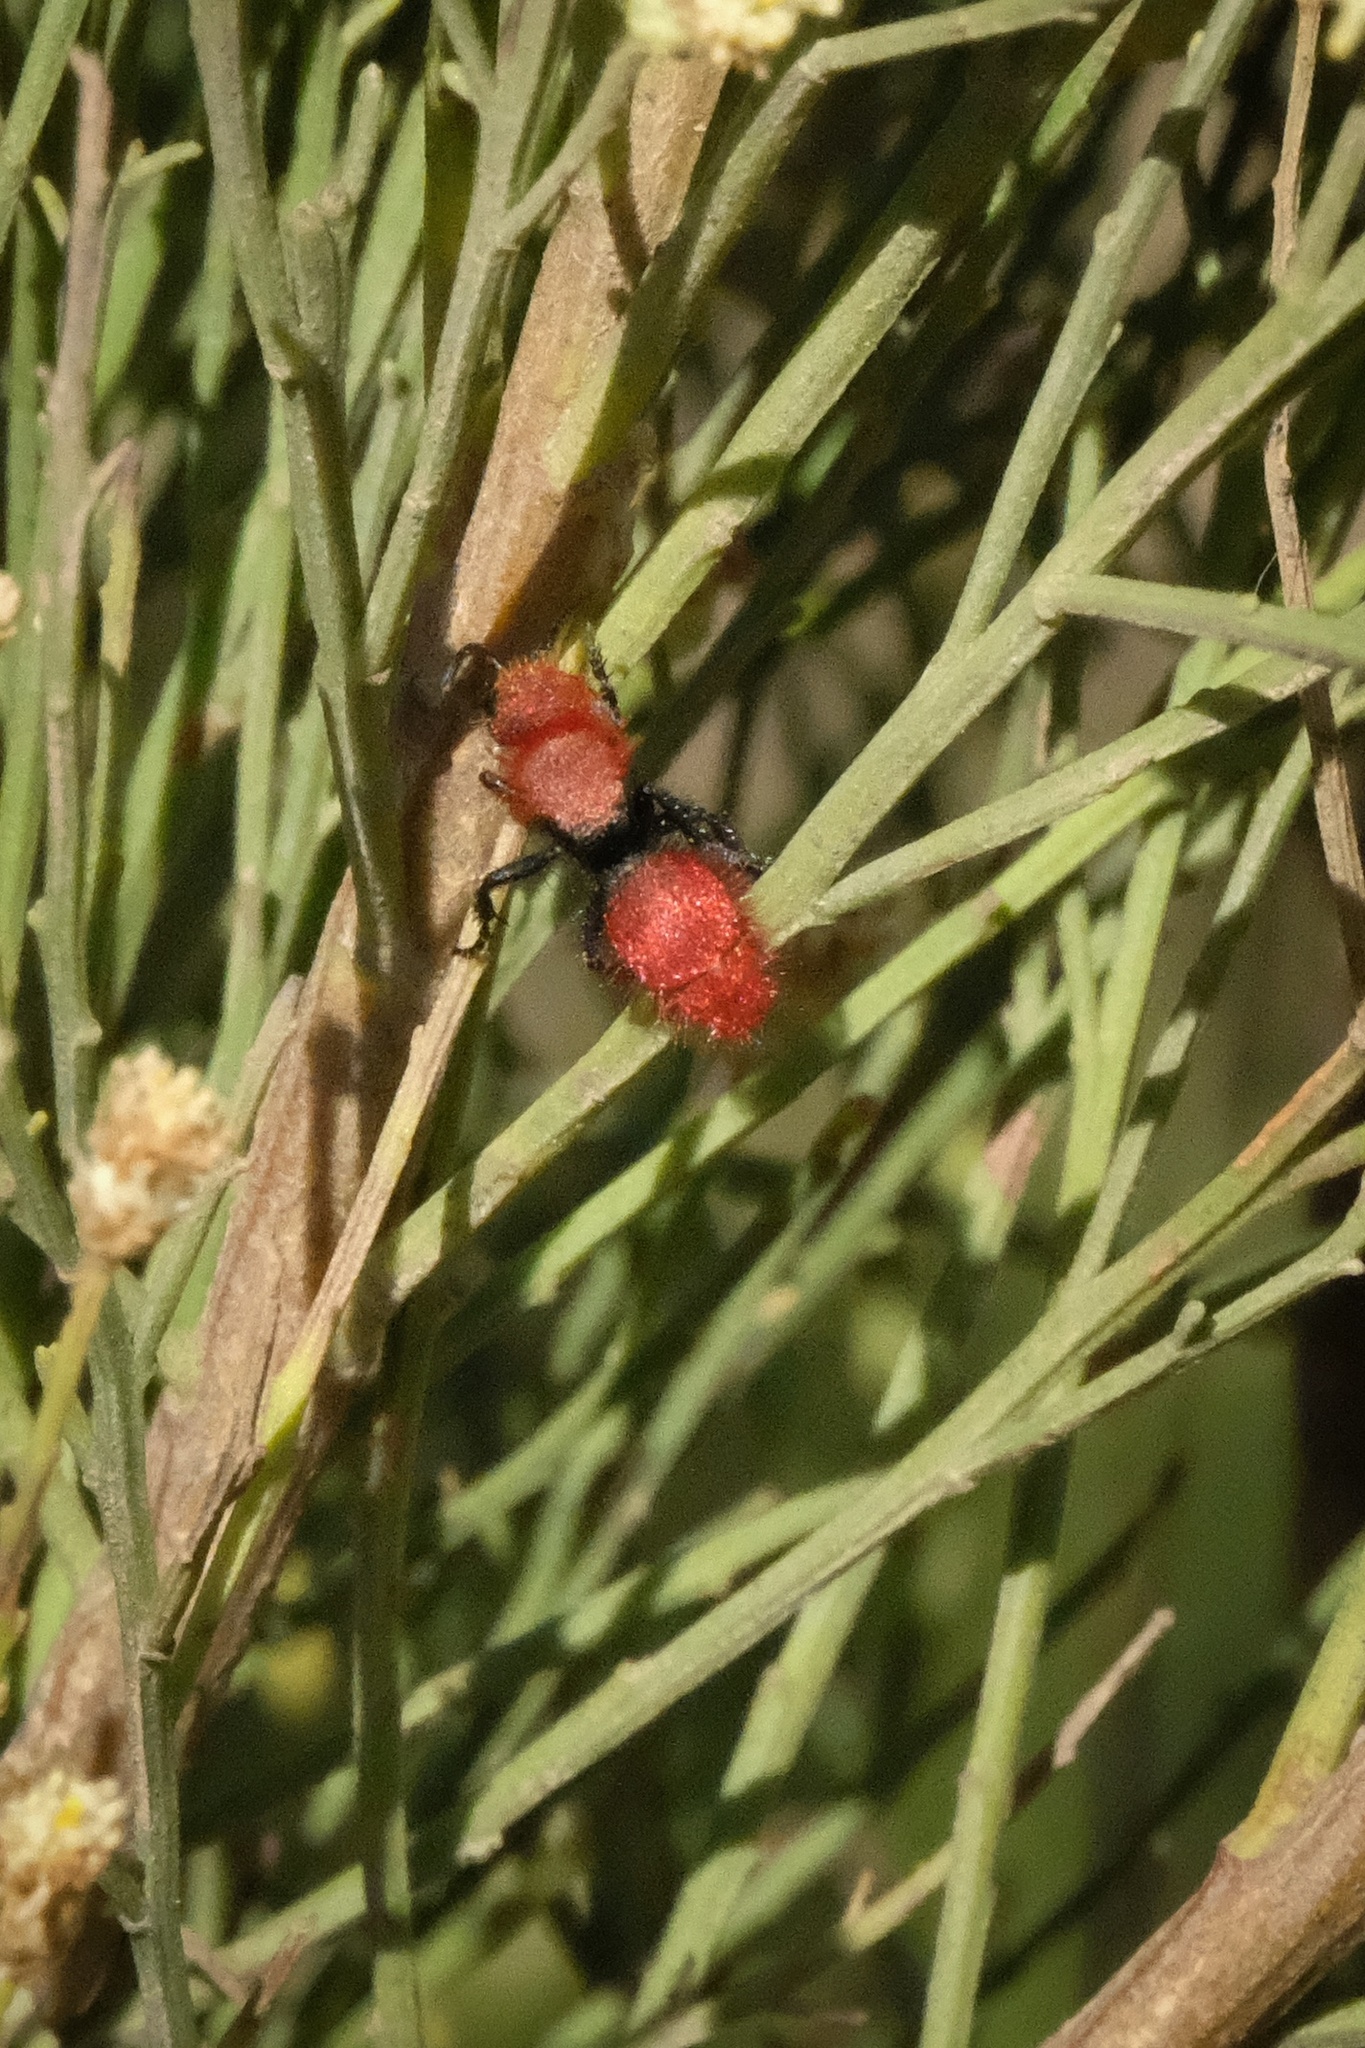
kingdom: Animalia
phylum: Arthropoda
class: Insecta
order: Hymenoptera
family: Mutillidae
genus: Dasymutilla
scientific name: Dasymutilla
